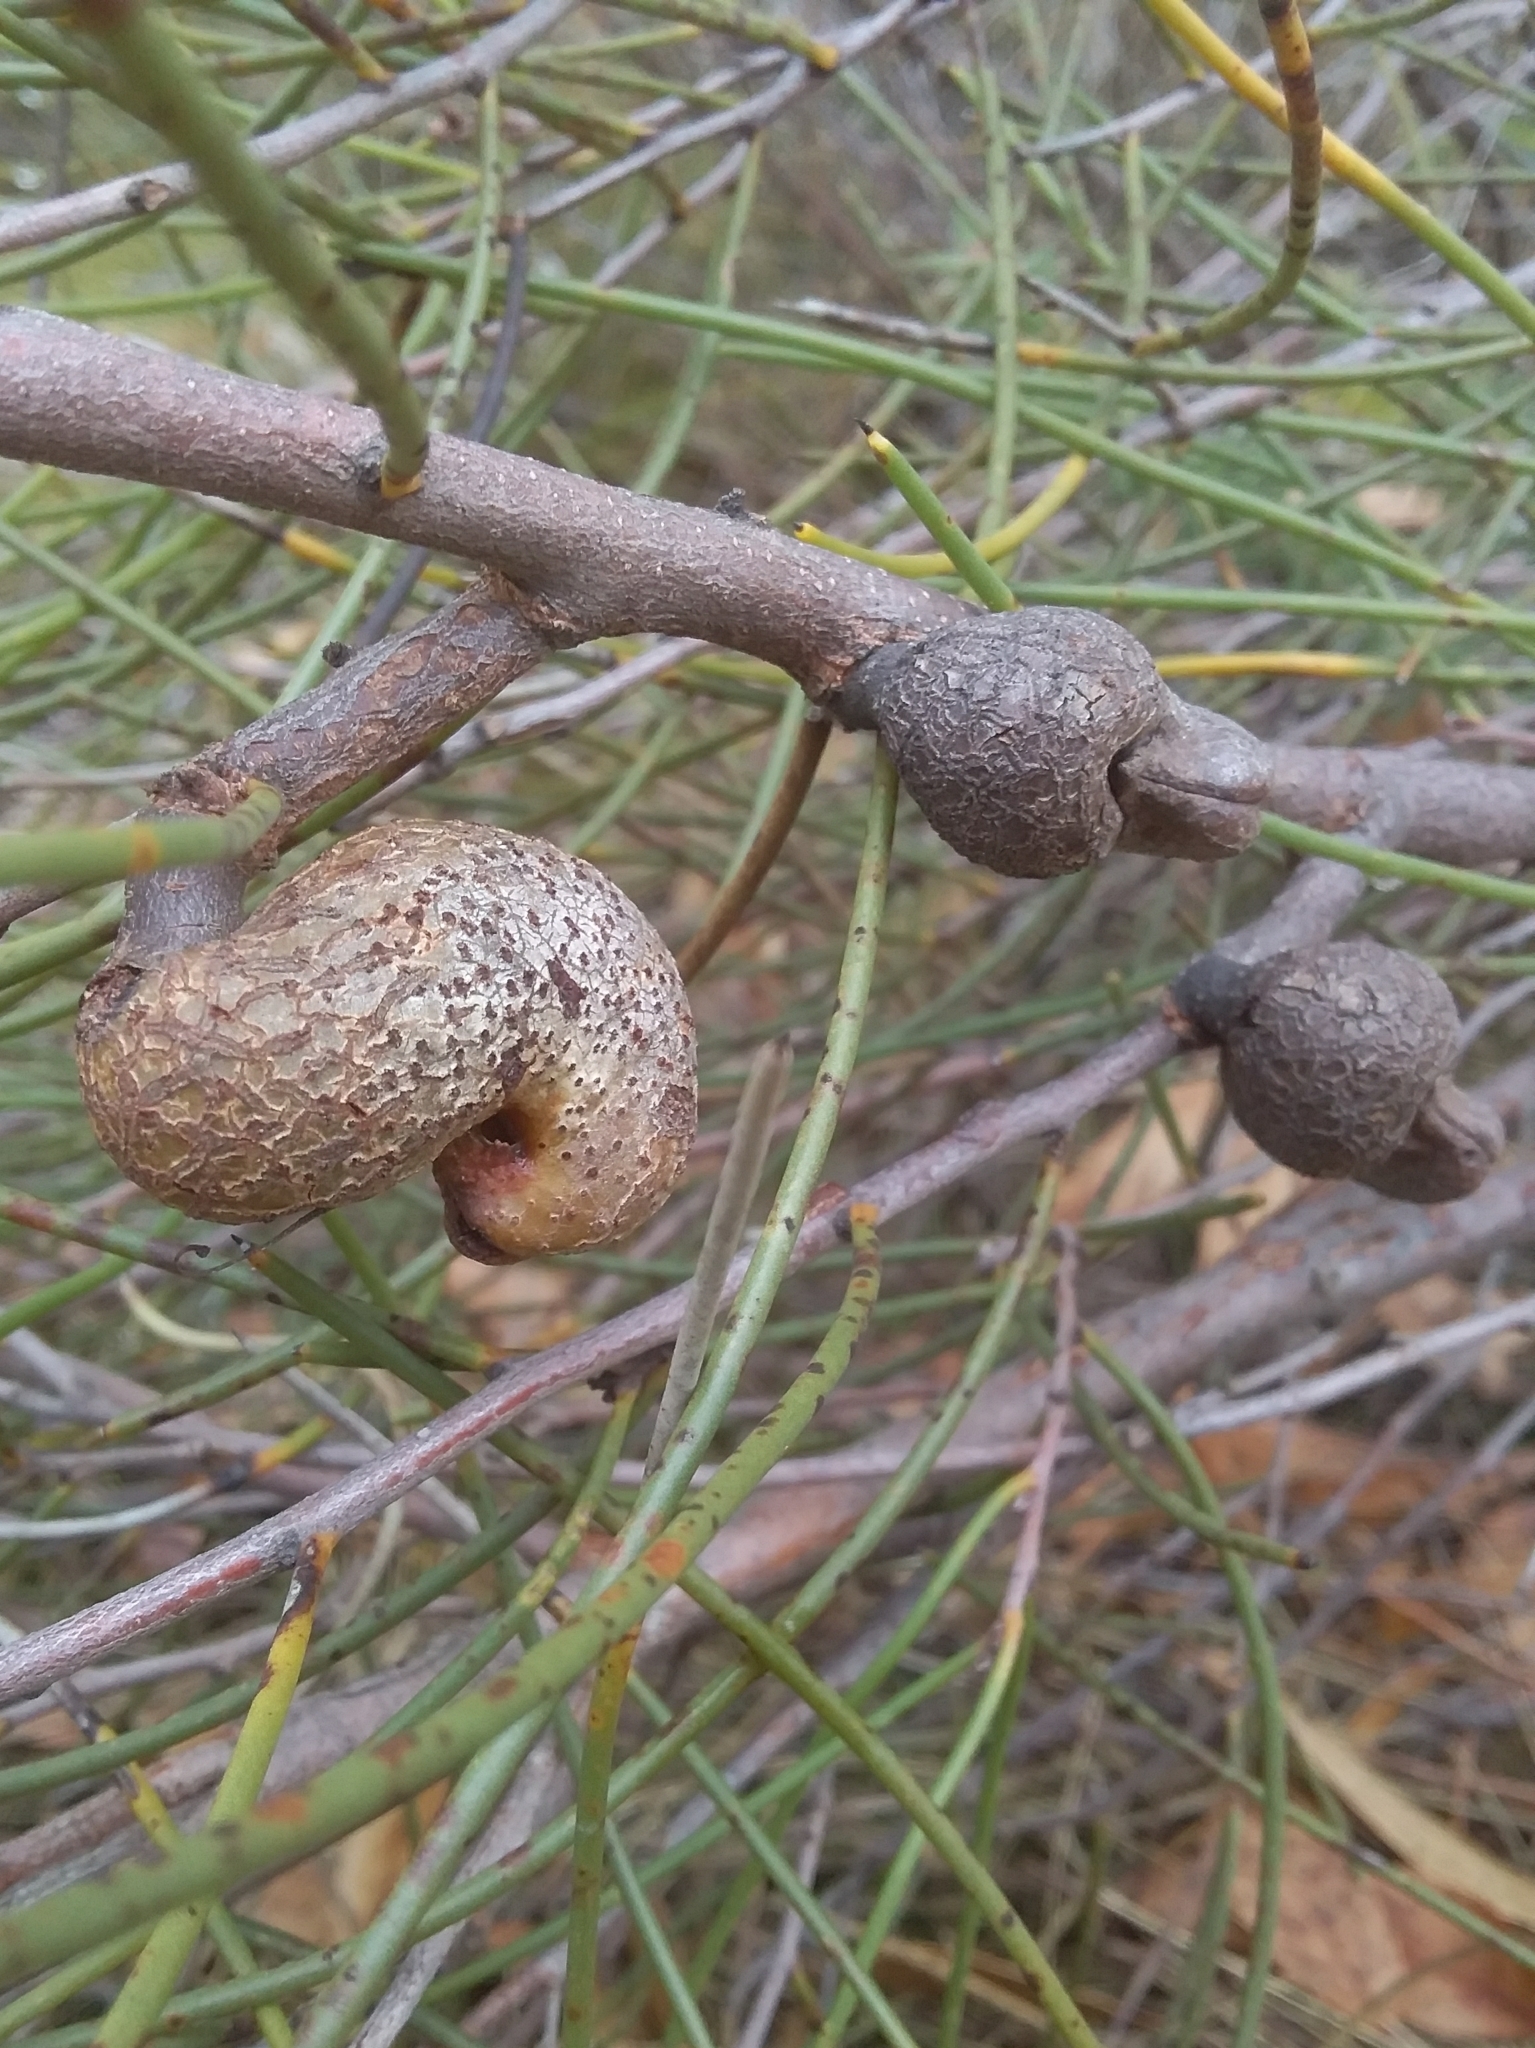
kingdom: Plantae
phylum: Tracheophyta
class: Magnoliopsida
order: Proteales
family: Proteaceae
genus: Hakea
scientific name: Hakea rostrata
